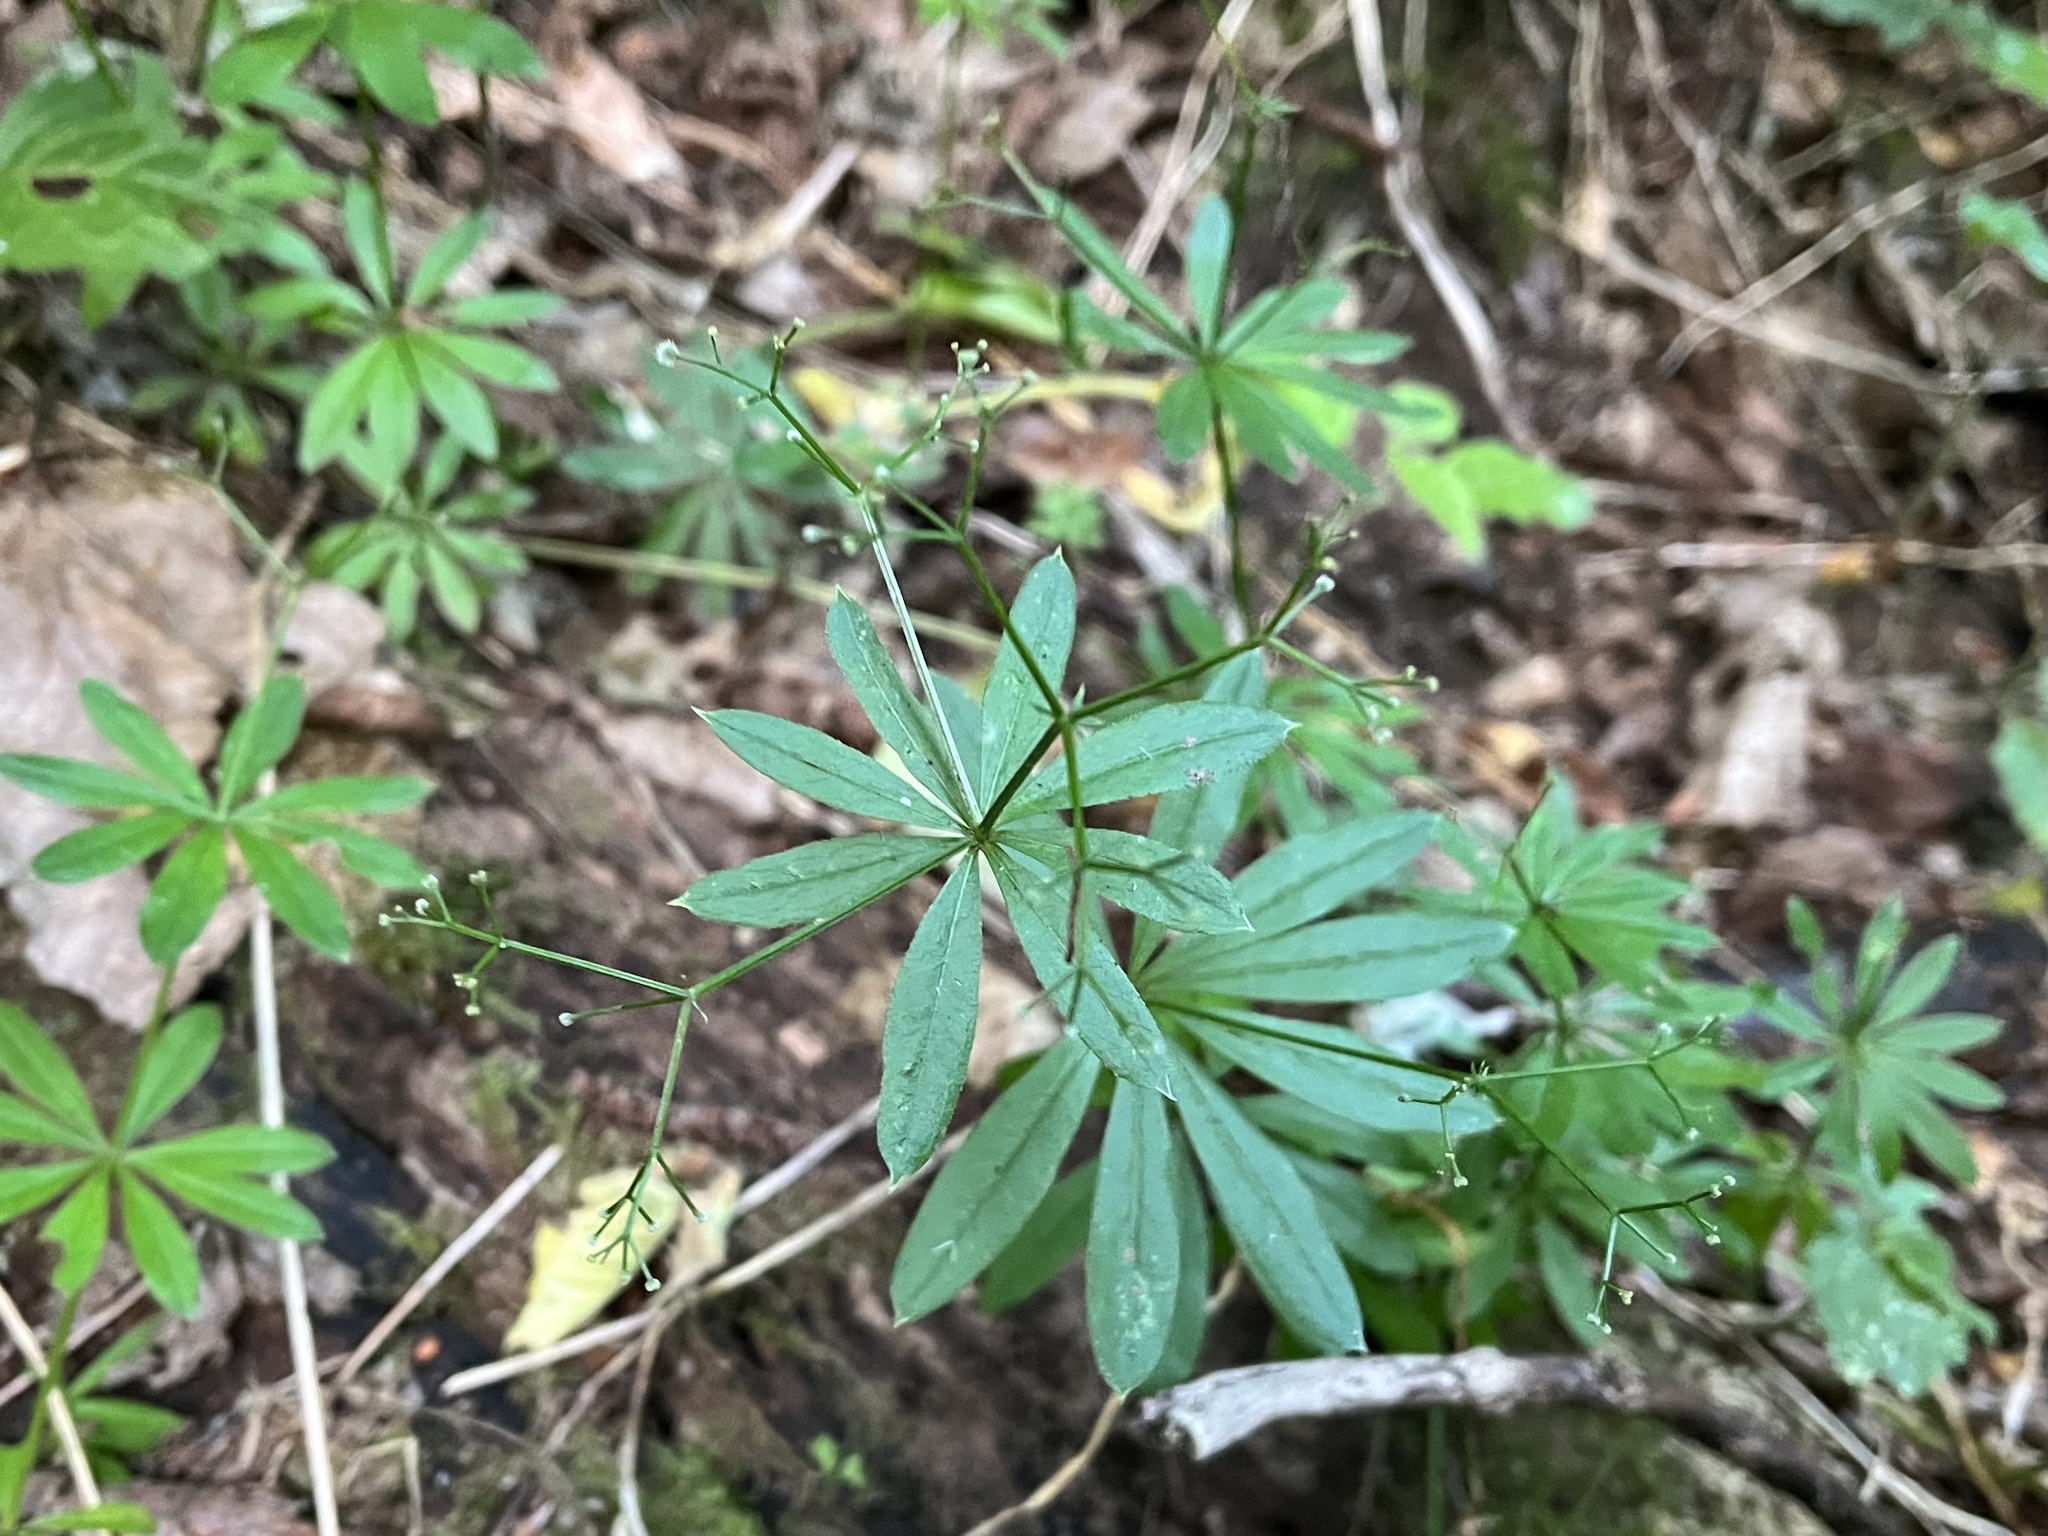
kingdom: Plantae
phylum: Tracheophyta
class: Magnoliopsida
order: Gentianales
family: Rubiaceae
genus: Galium
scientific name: Galium odoratum
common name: Sweet woodruff
